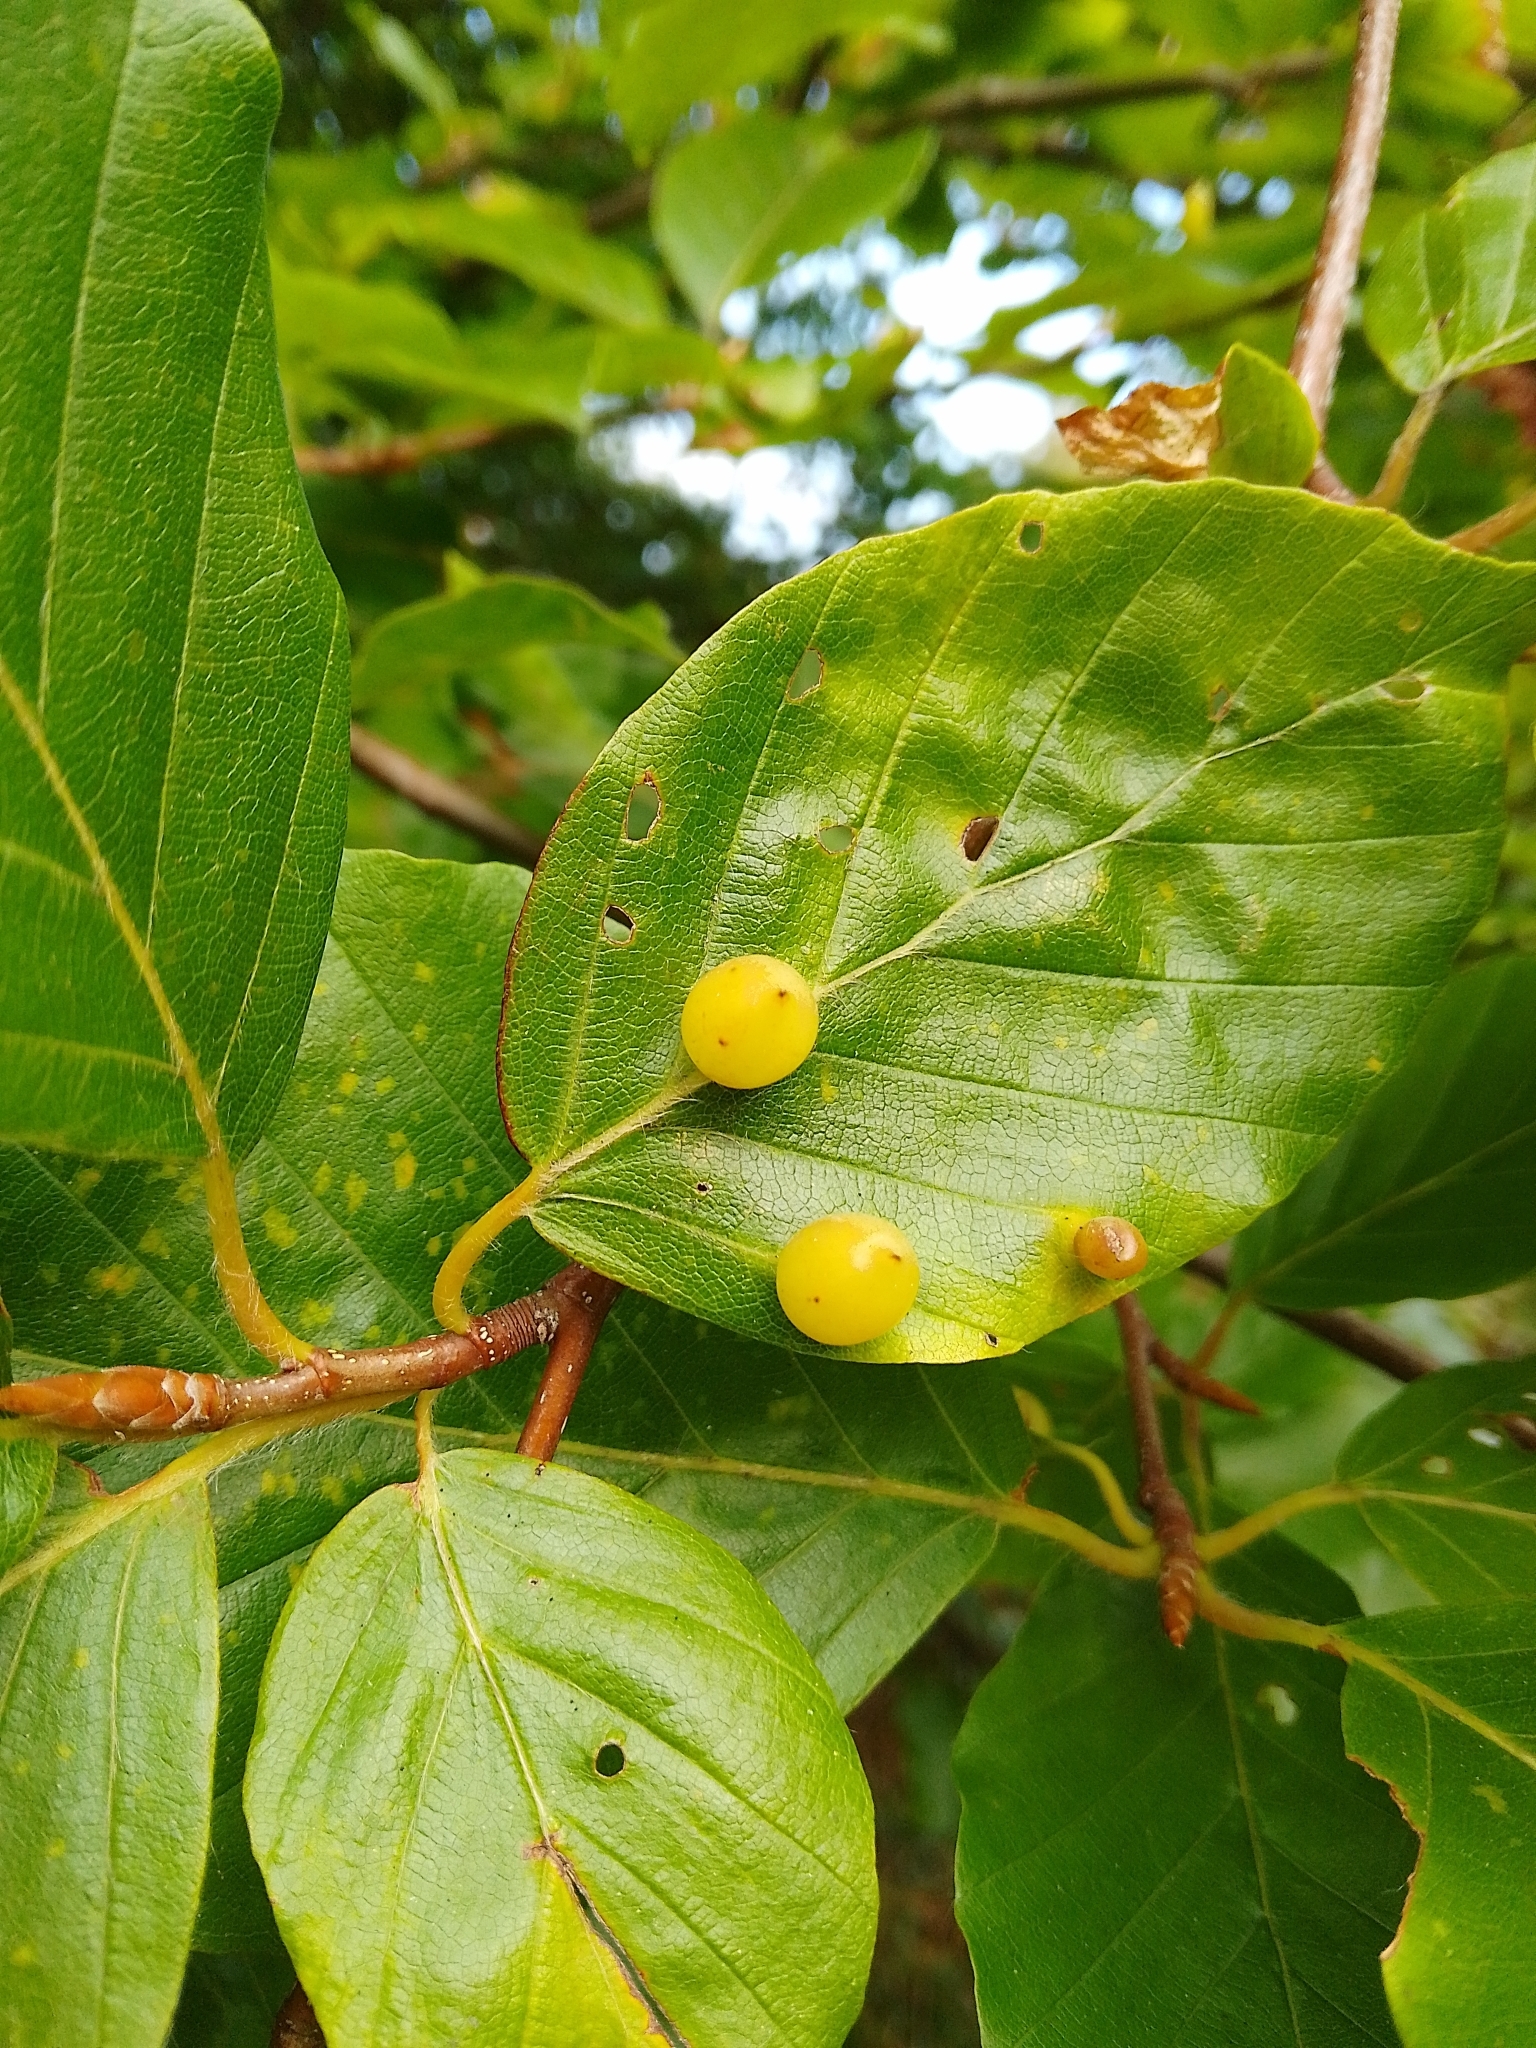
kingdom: Animalia
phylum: Arthropoda
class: Insecta
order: Diptera
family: Cecidomyiidae
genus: Mikiola
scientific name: Mikiola fagi
